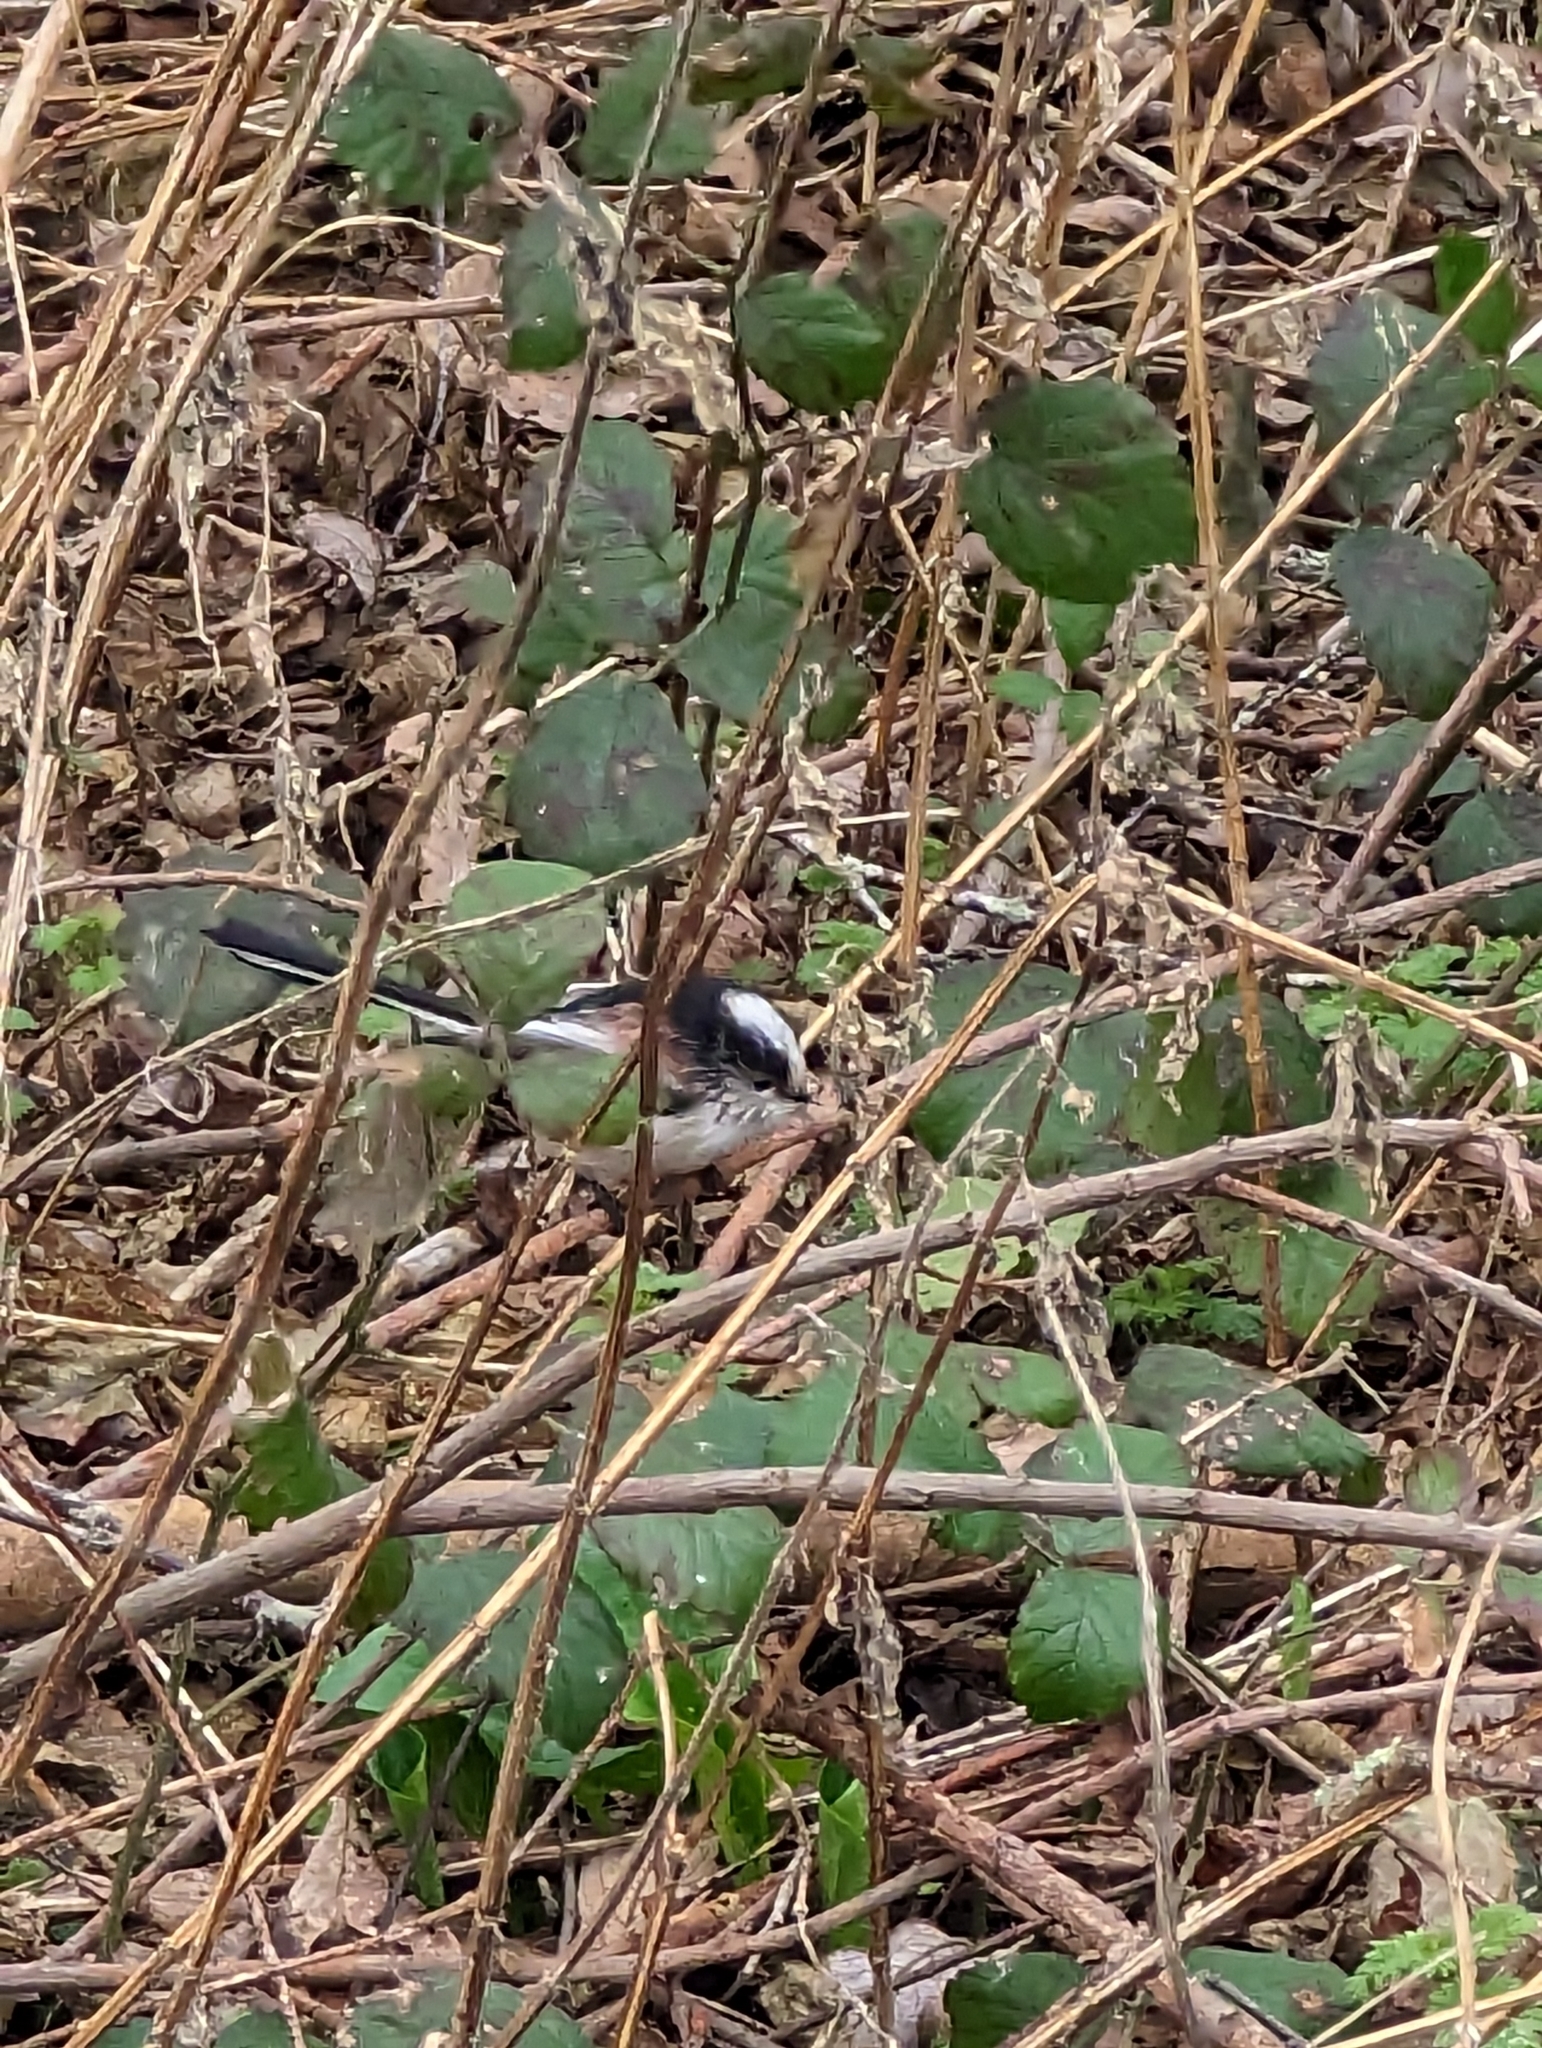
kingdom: Animalia
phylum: Chordata
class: Aves
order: Passeriformes
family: Aegithalidae
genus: Aegithalos
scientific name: Aegithalos caudatus
